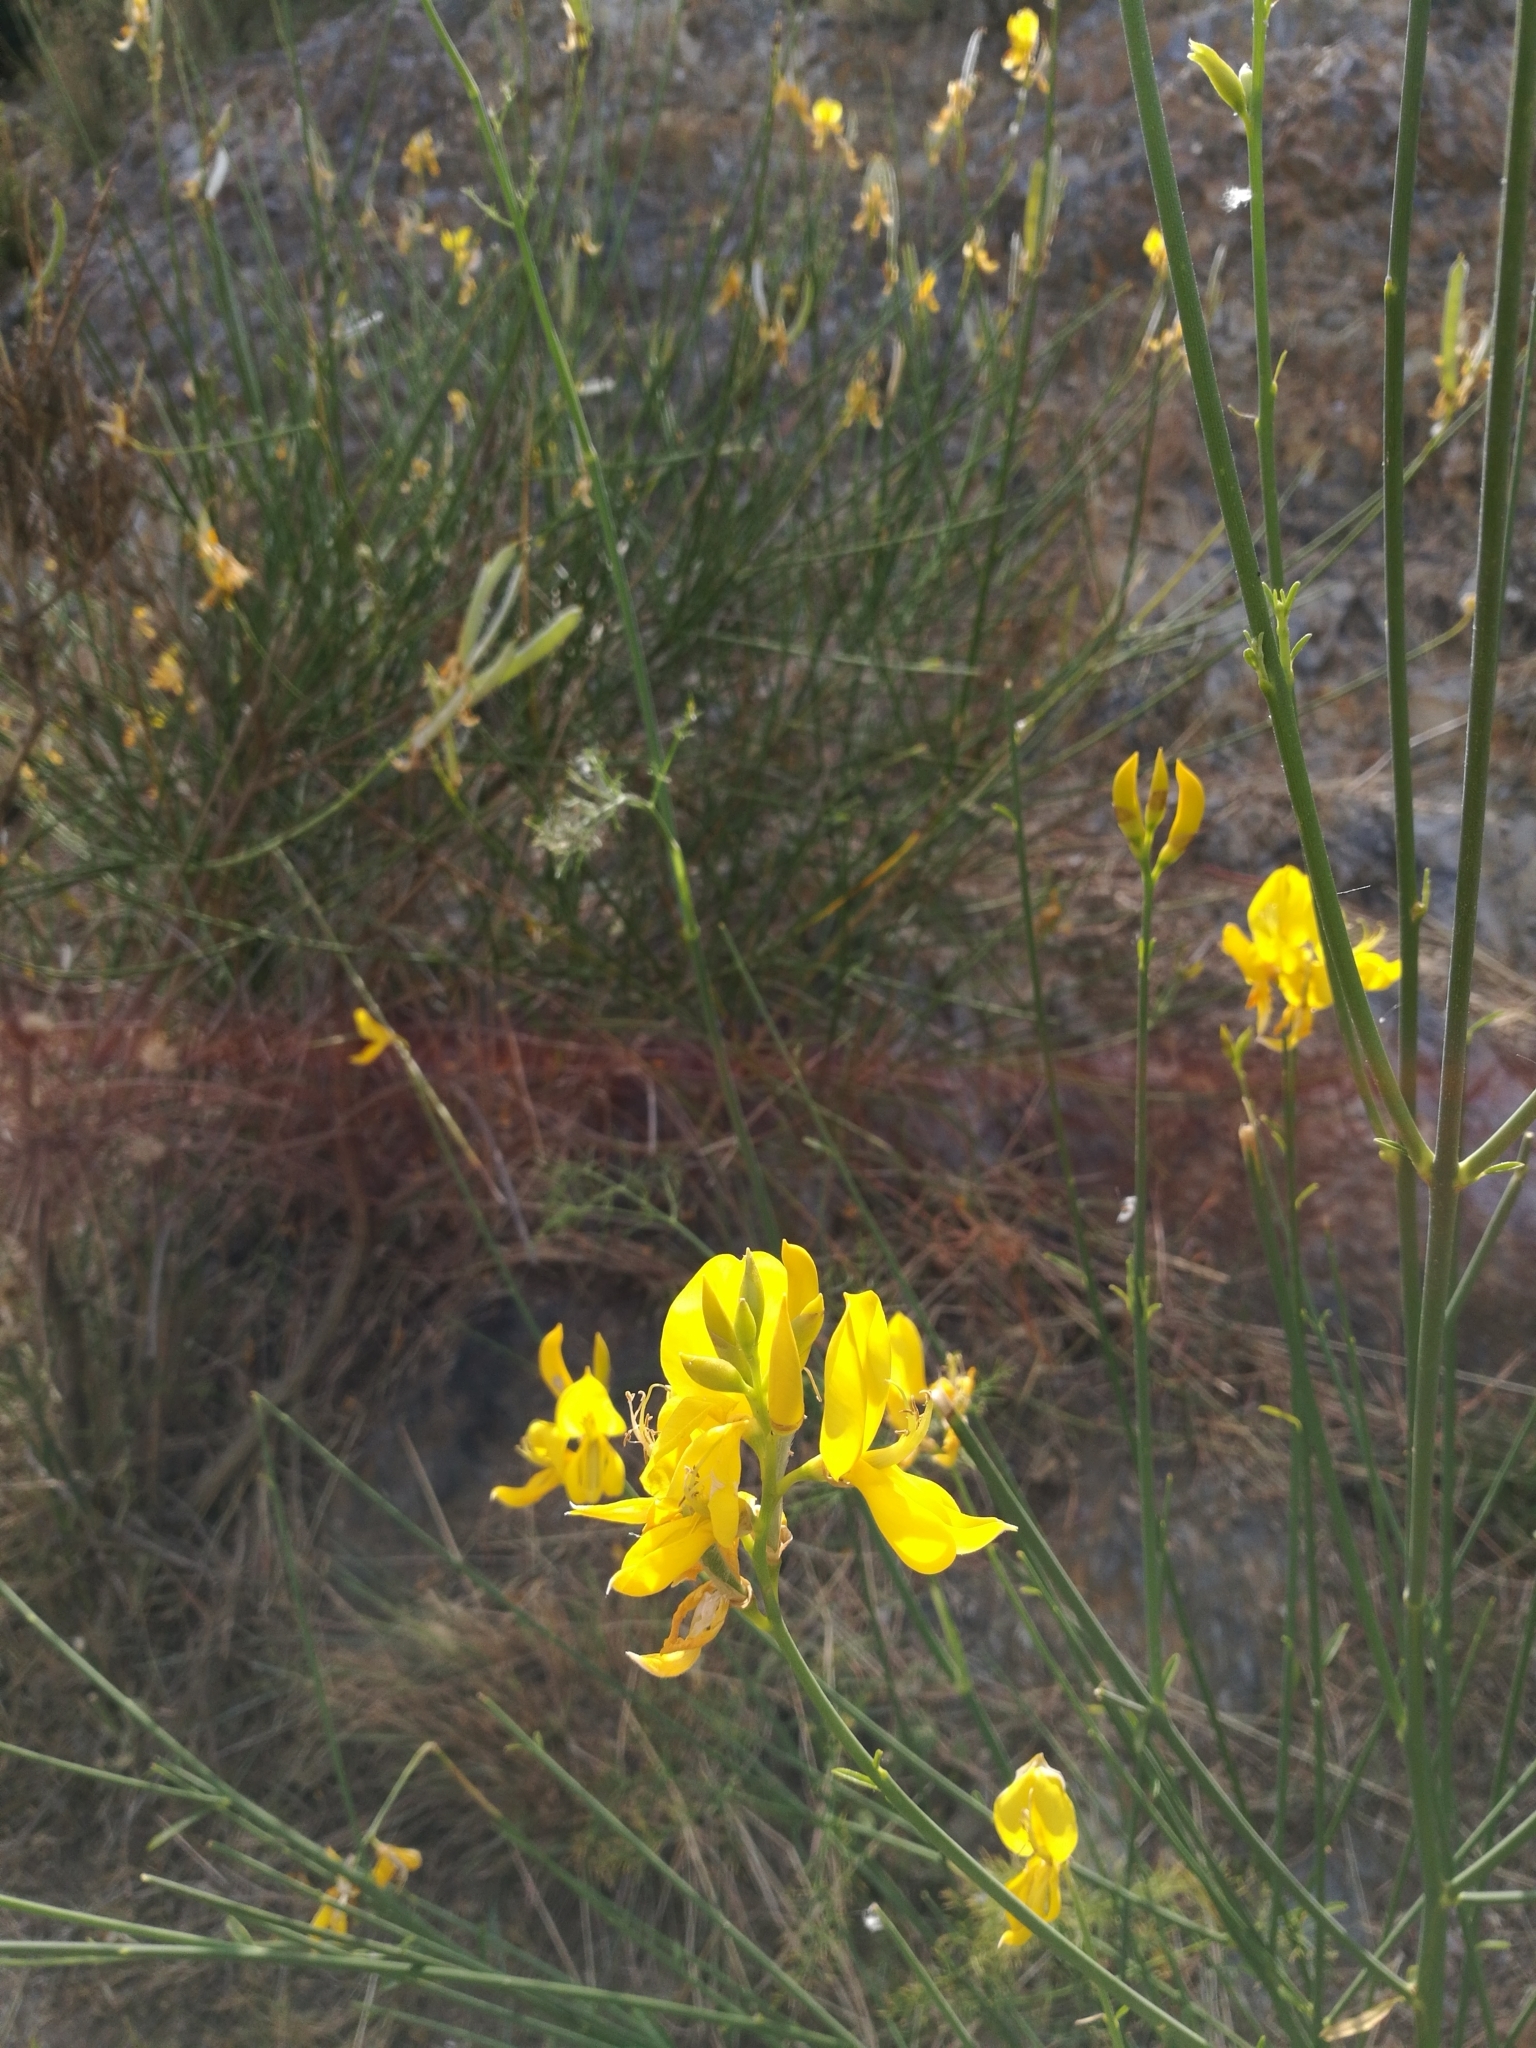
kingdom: Plantae
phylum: Tracheophyta
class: Magnoliopsida
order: Fabales
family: Fabaceae
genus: Spartium
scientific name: Spartium junceum
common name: Spanish broom
